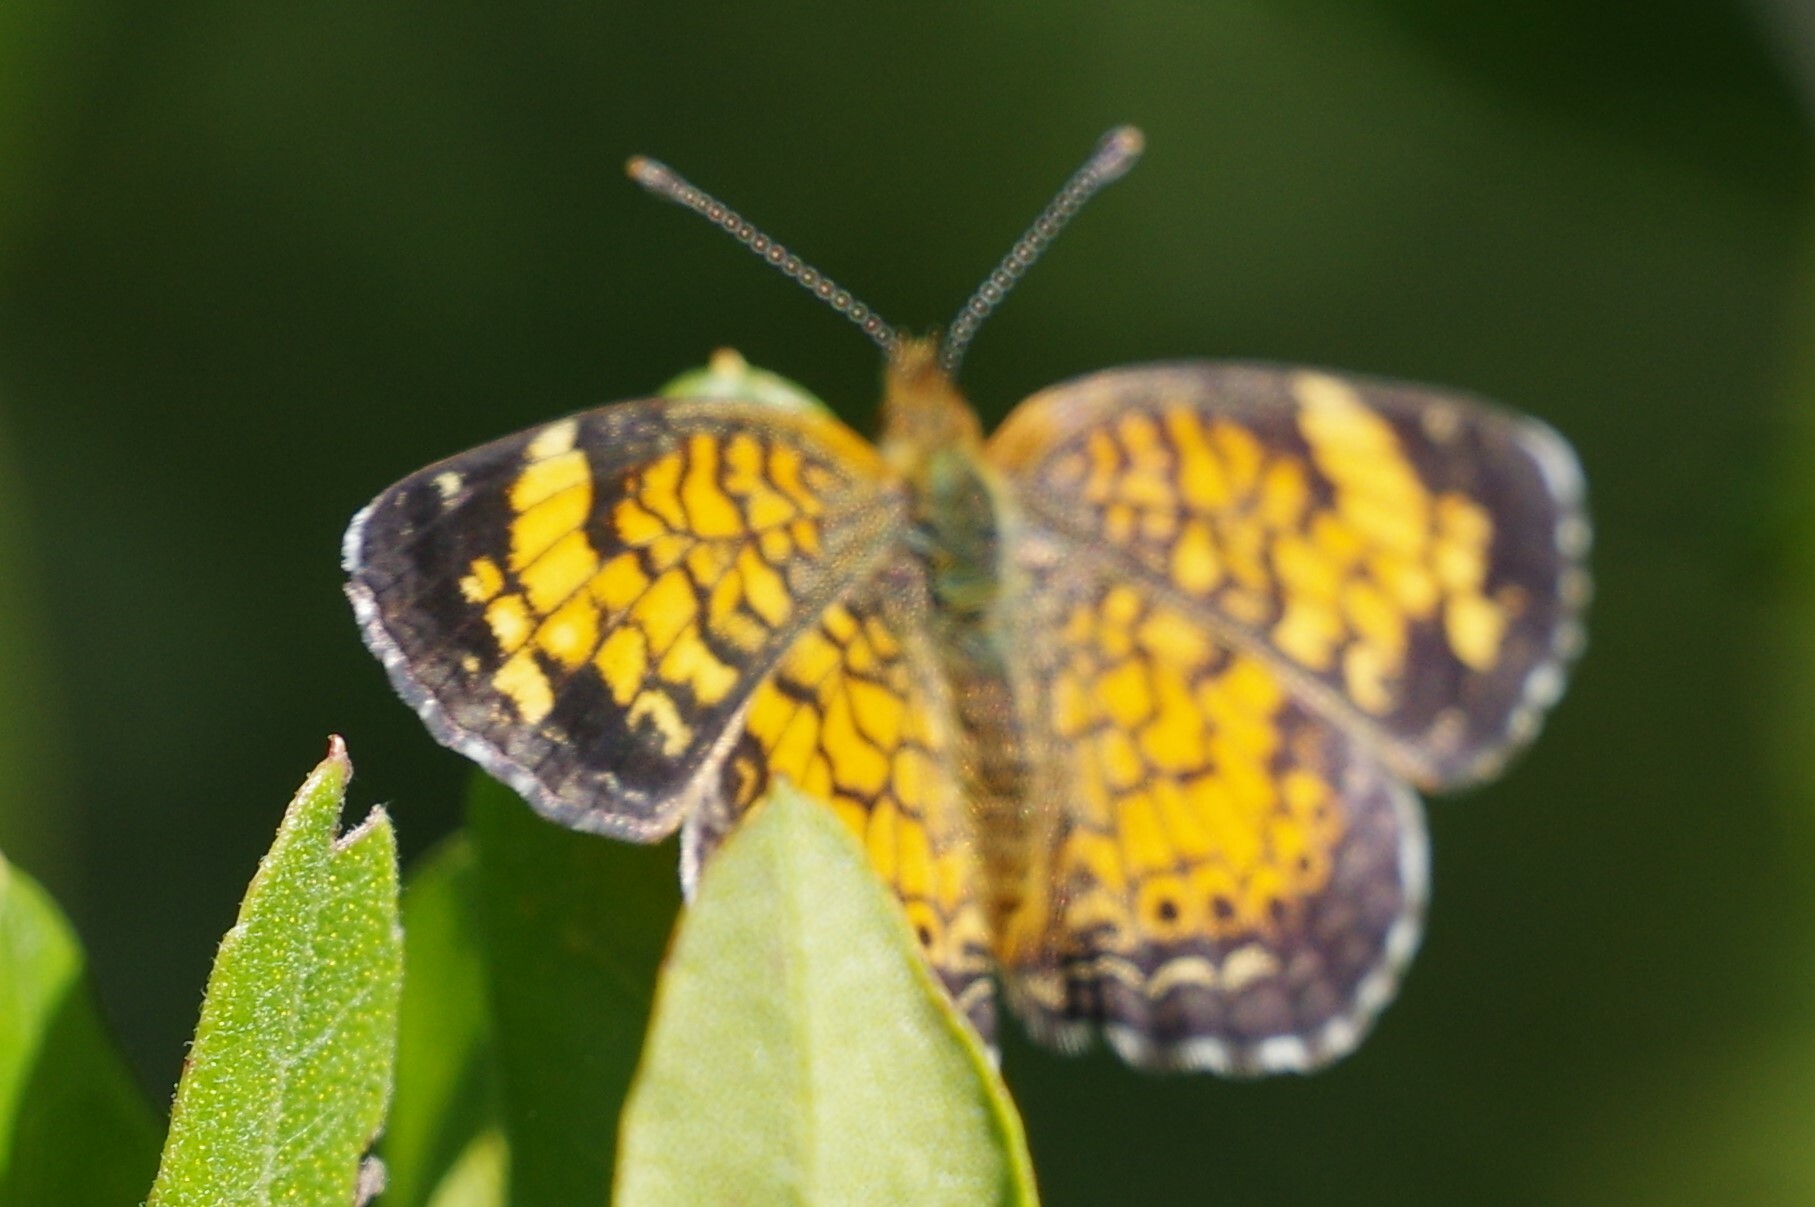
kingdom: Animalia
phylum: Arthropoda
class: Insecta
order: Lepidoptera
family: Nymphalidae
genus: Phyciodes
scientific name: Phyciodes tharos
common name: Pearl crescent
